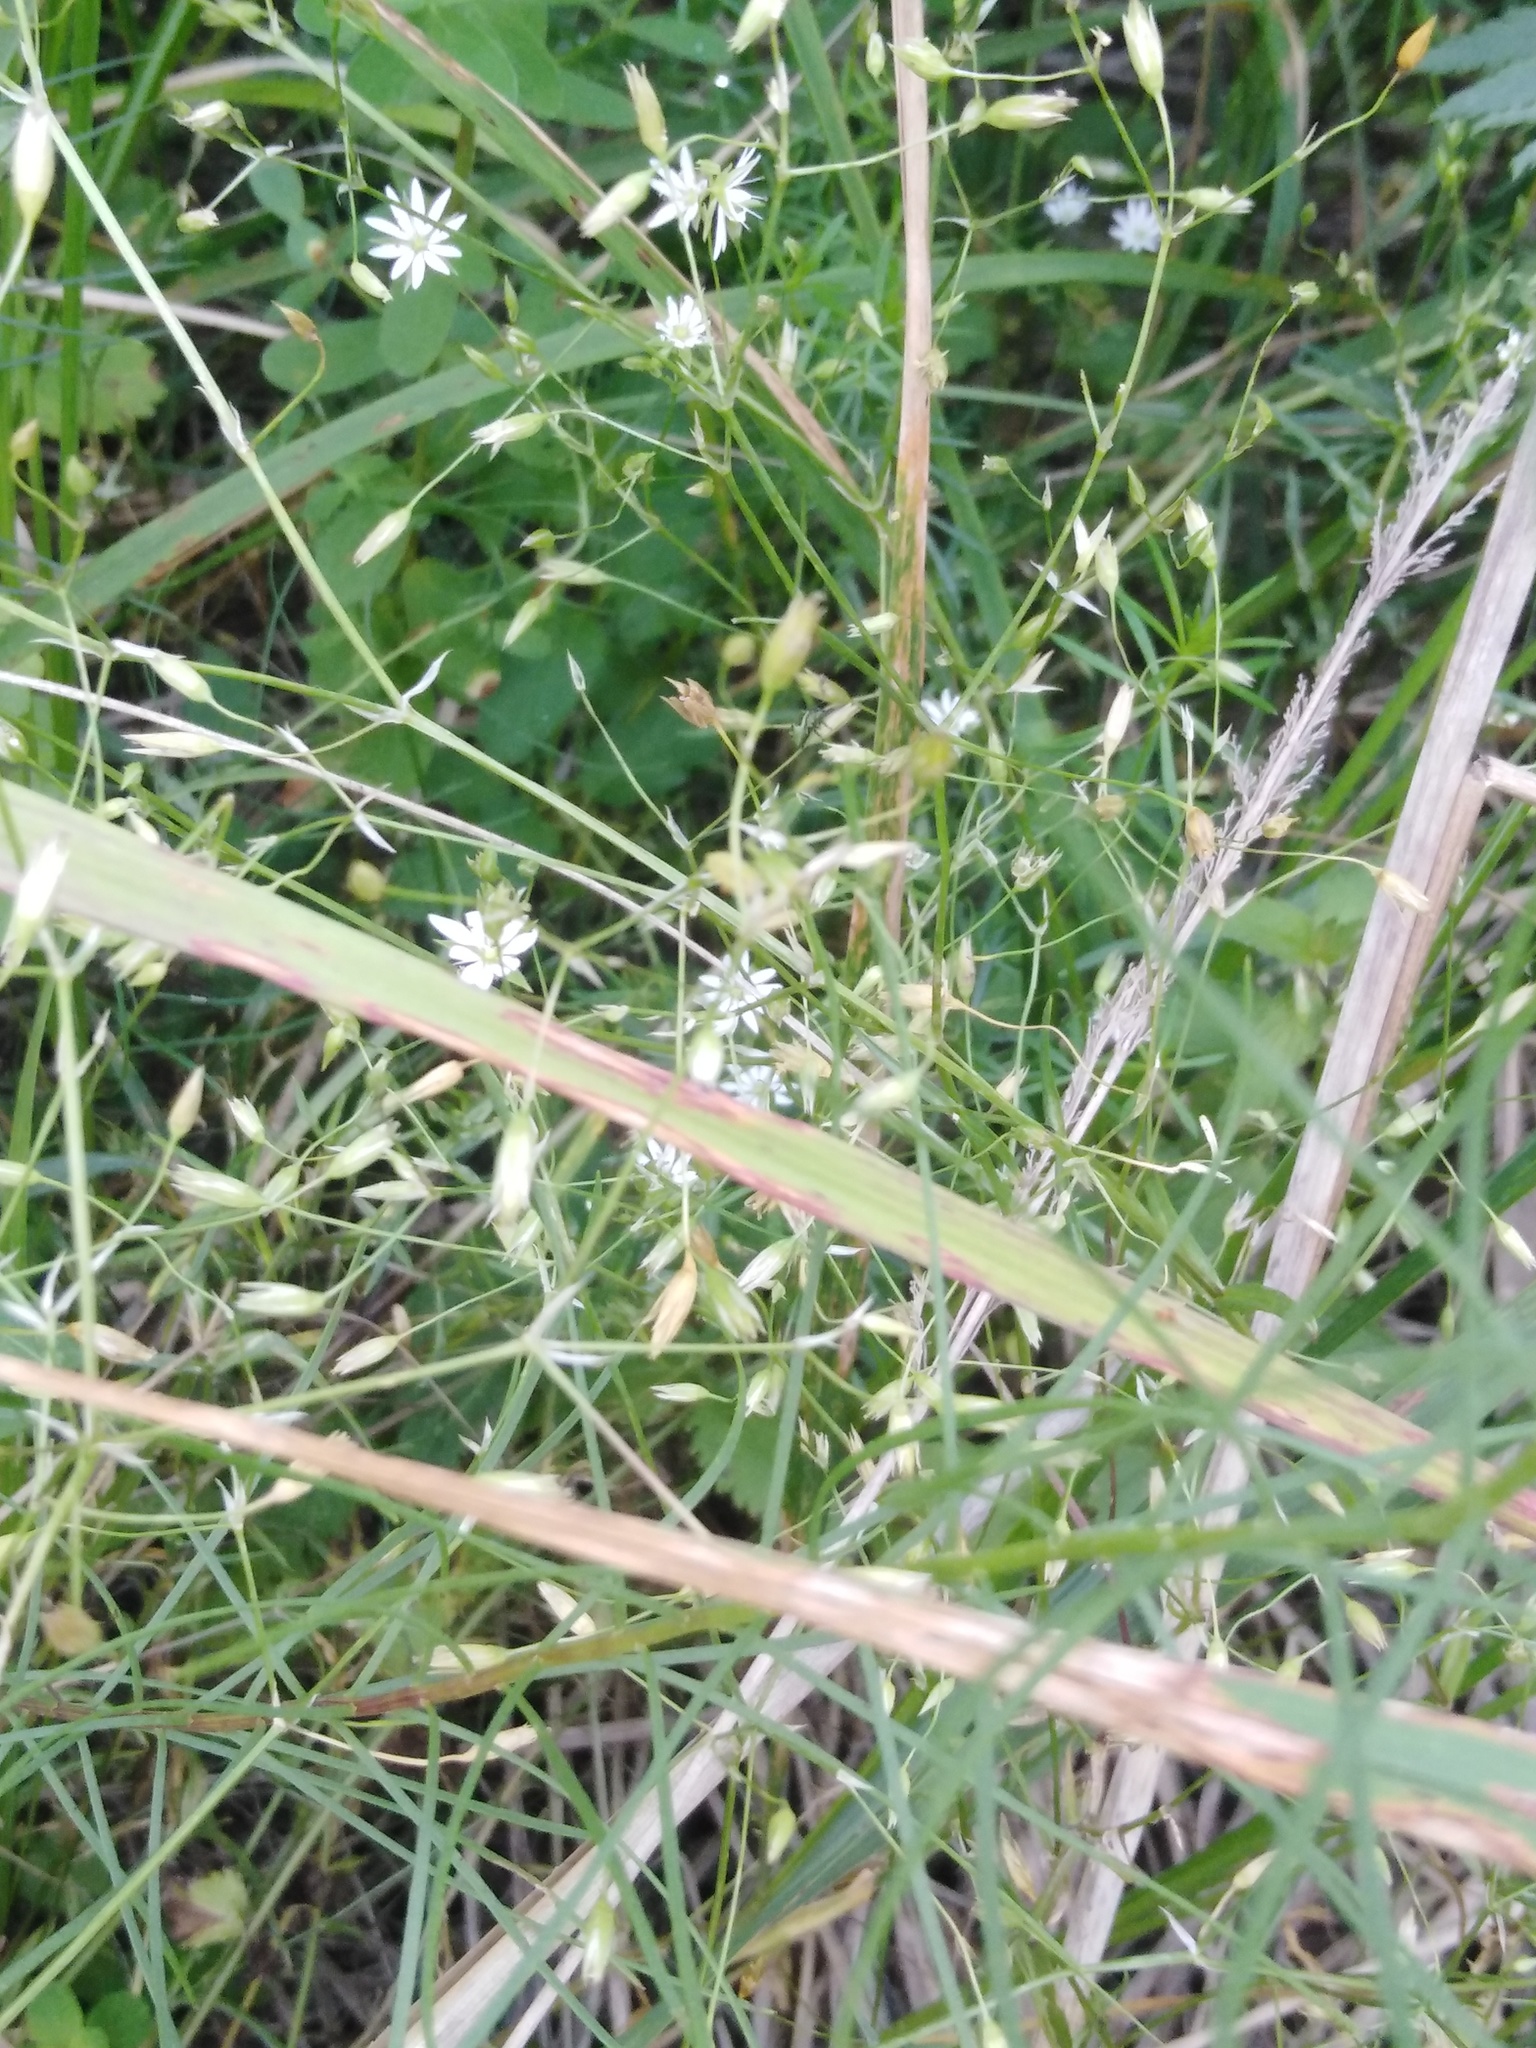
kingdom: Plantae
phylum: Tracheophyta
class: Magnoliopsida
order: Caryophyllales
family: Caryophyllaceae
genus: Stellaria
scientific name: Stellaria graminea
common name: Grass-like starwort
